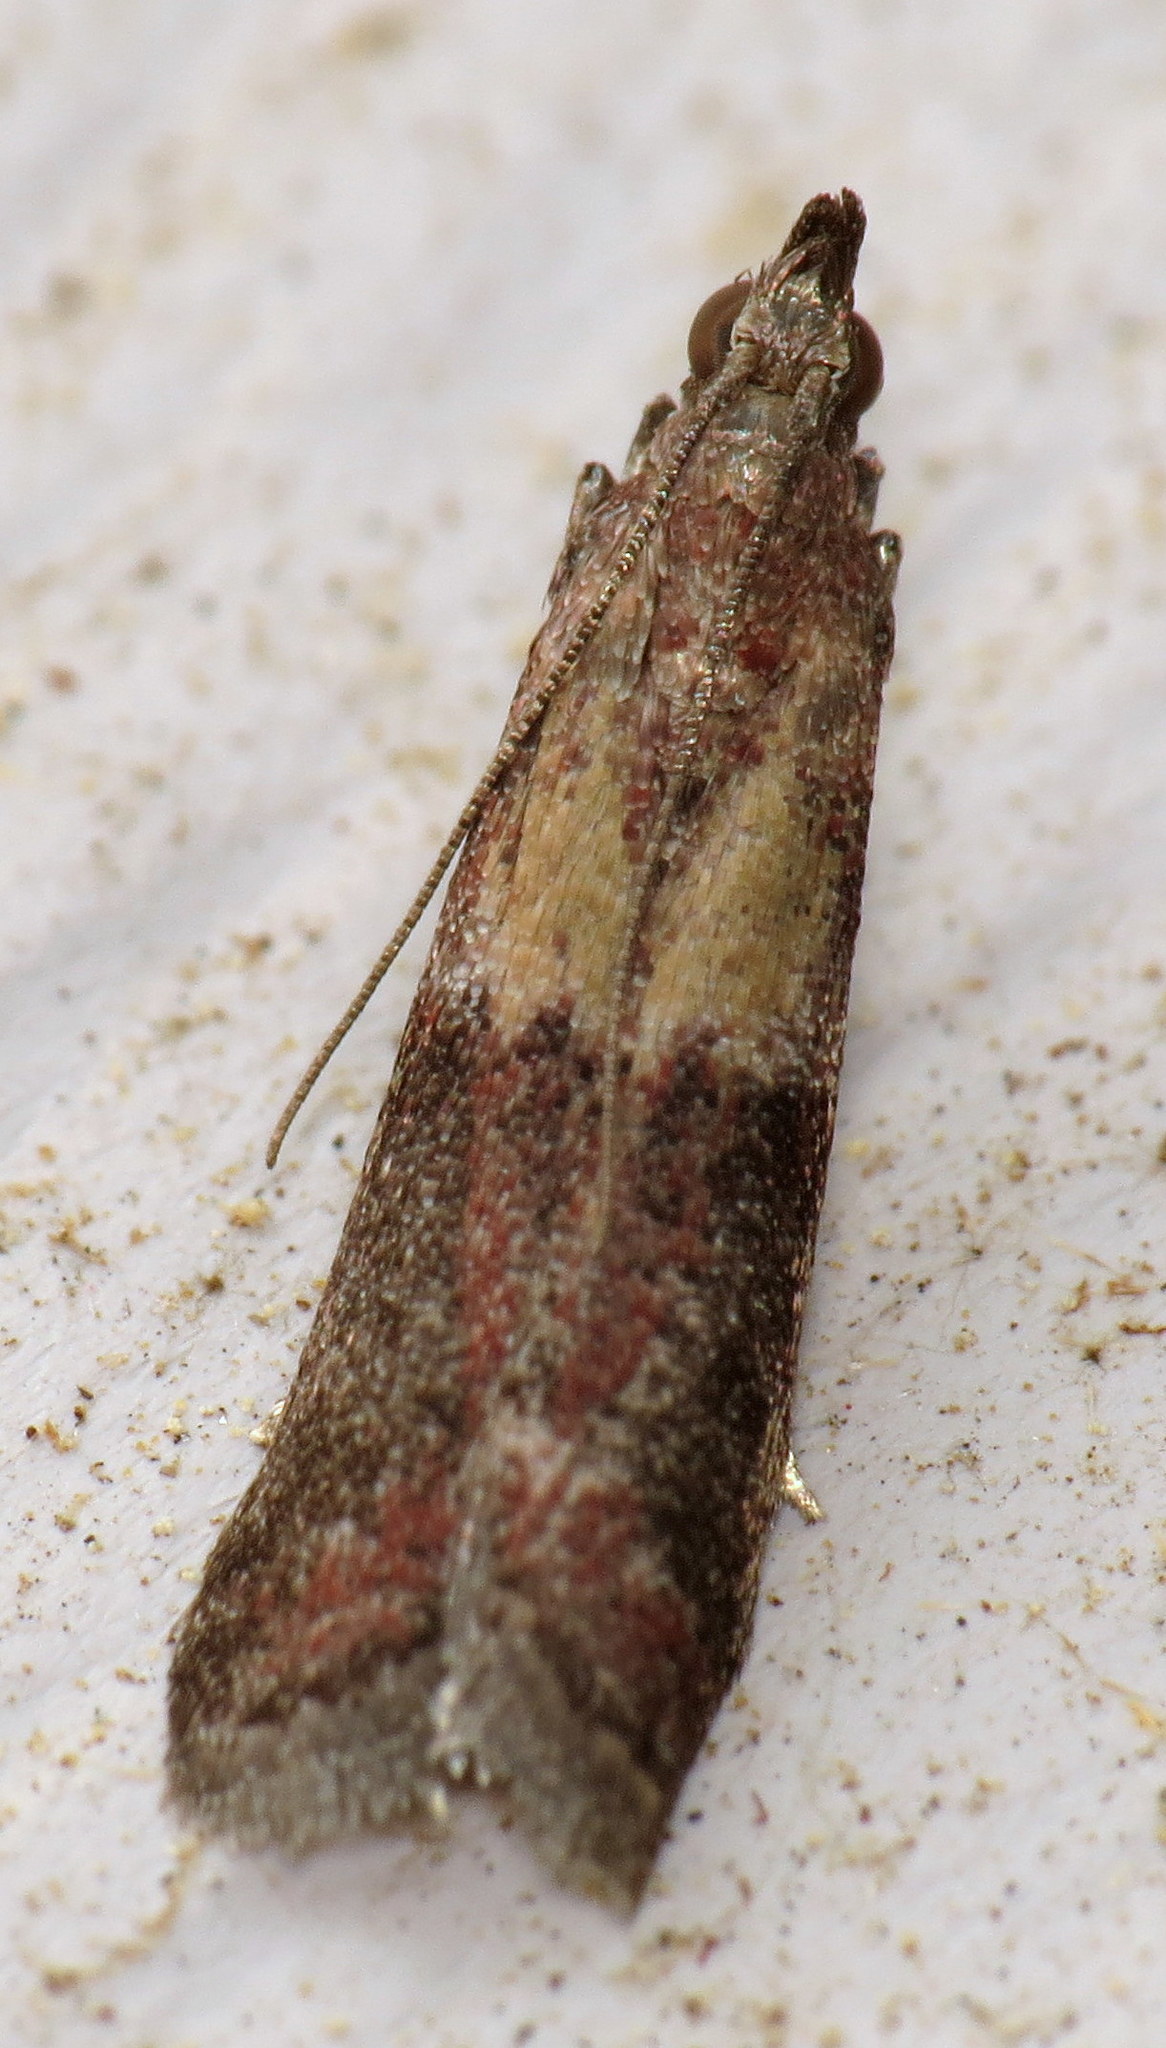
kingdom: Animalia
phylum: Arthropoda
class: Insecta
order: Lepidoptera
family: Pyralidae
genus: Ephestiodes
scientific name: Ephestiodes infimella
